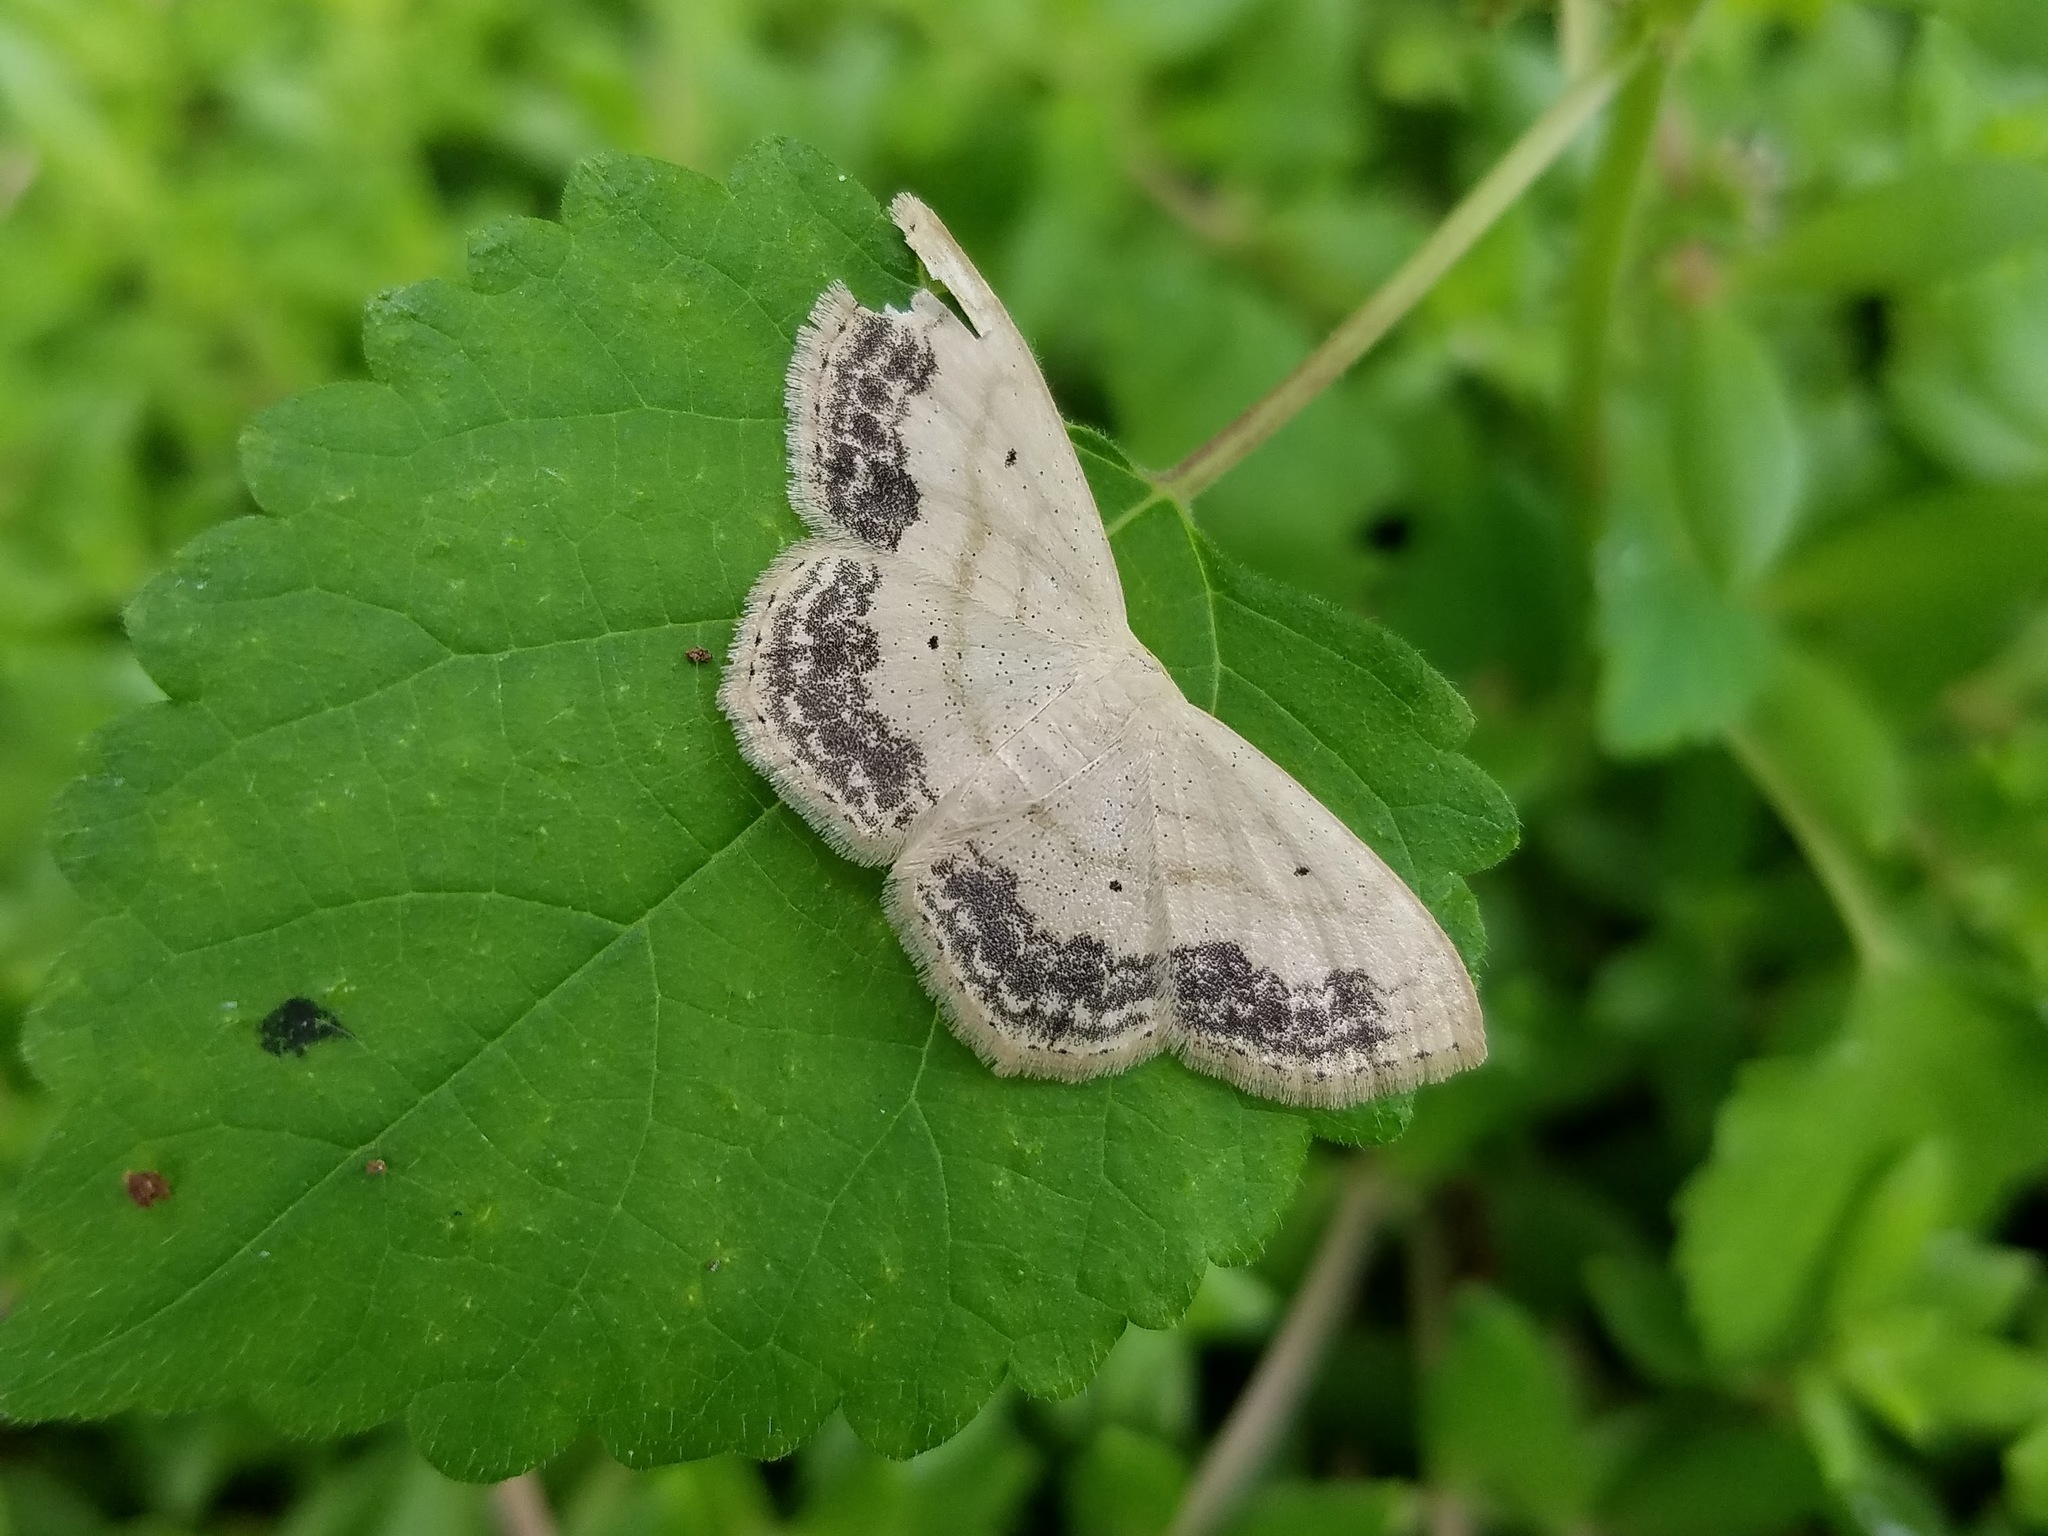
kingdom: Animalia
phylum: Arthropoda
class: Insecta
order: Lepidoptera
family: Geometridae
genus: Scopula
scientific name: Scopula limboundata
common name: Large lace border
